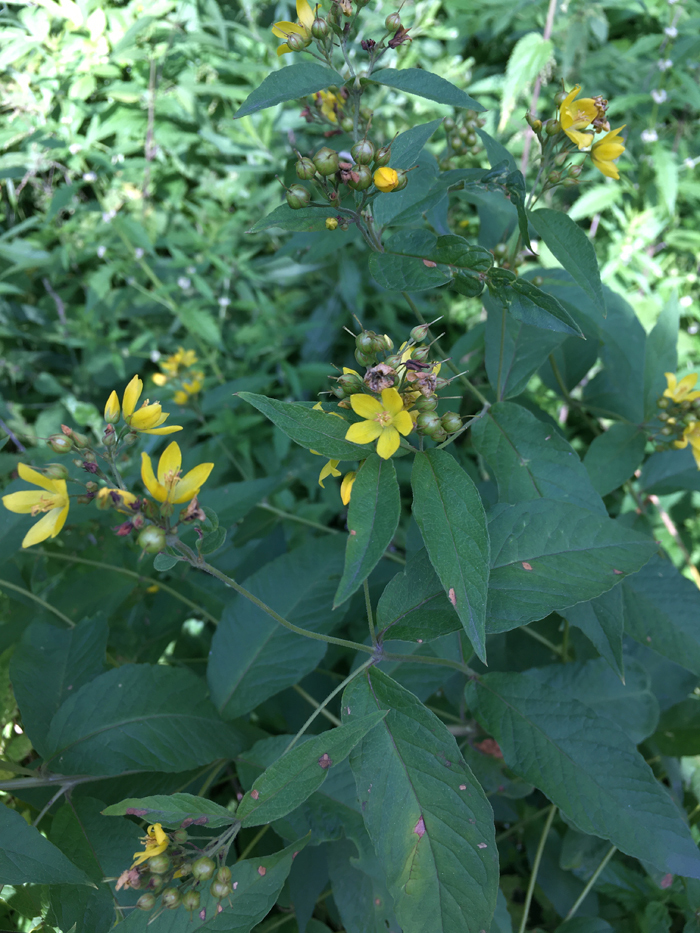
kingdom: Plantae
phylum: Tracheophyta
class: Magnoliopsida
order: Ericales
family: Primulaceae
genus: Lysimachia
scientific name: Lysimachia vulgaris
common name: Yellow loosestrife
